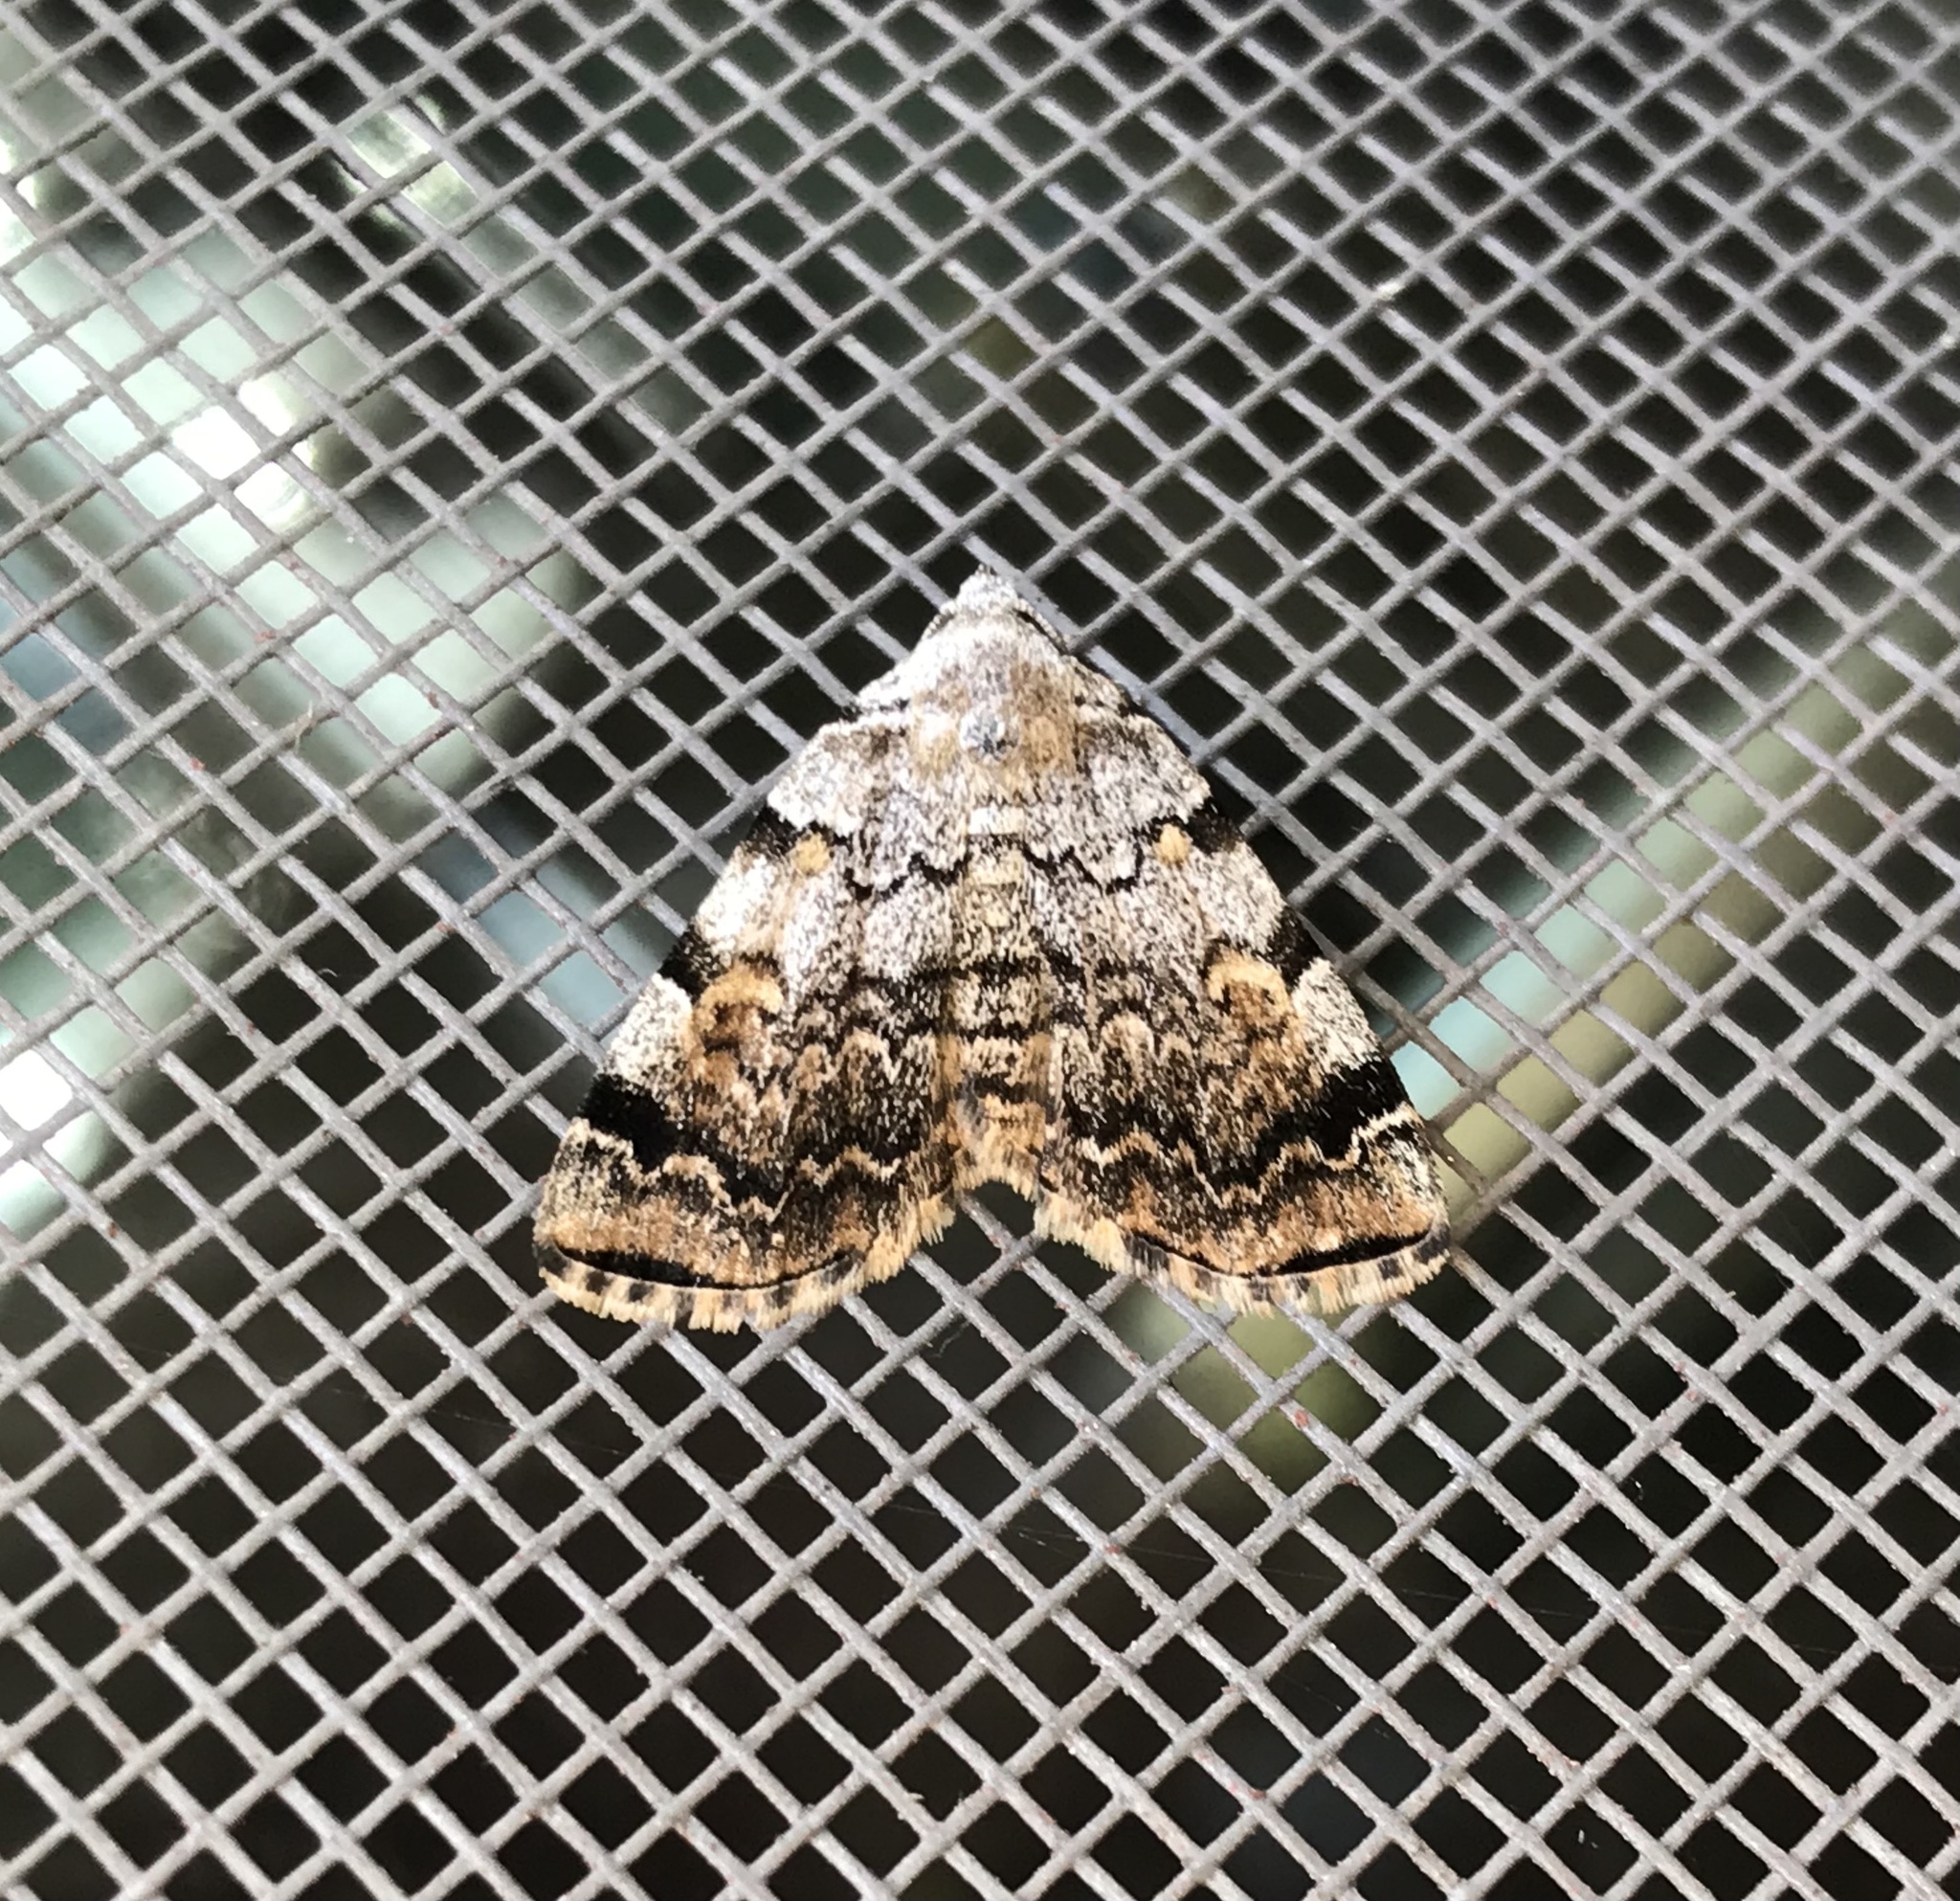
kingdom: Animalia
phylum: Arthropoda
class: Insecta
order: Lepidoptera
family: Erebidae
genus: Idia
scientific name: Idia americalis
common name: American idia moth
